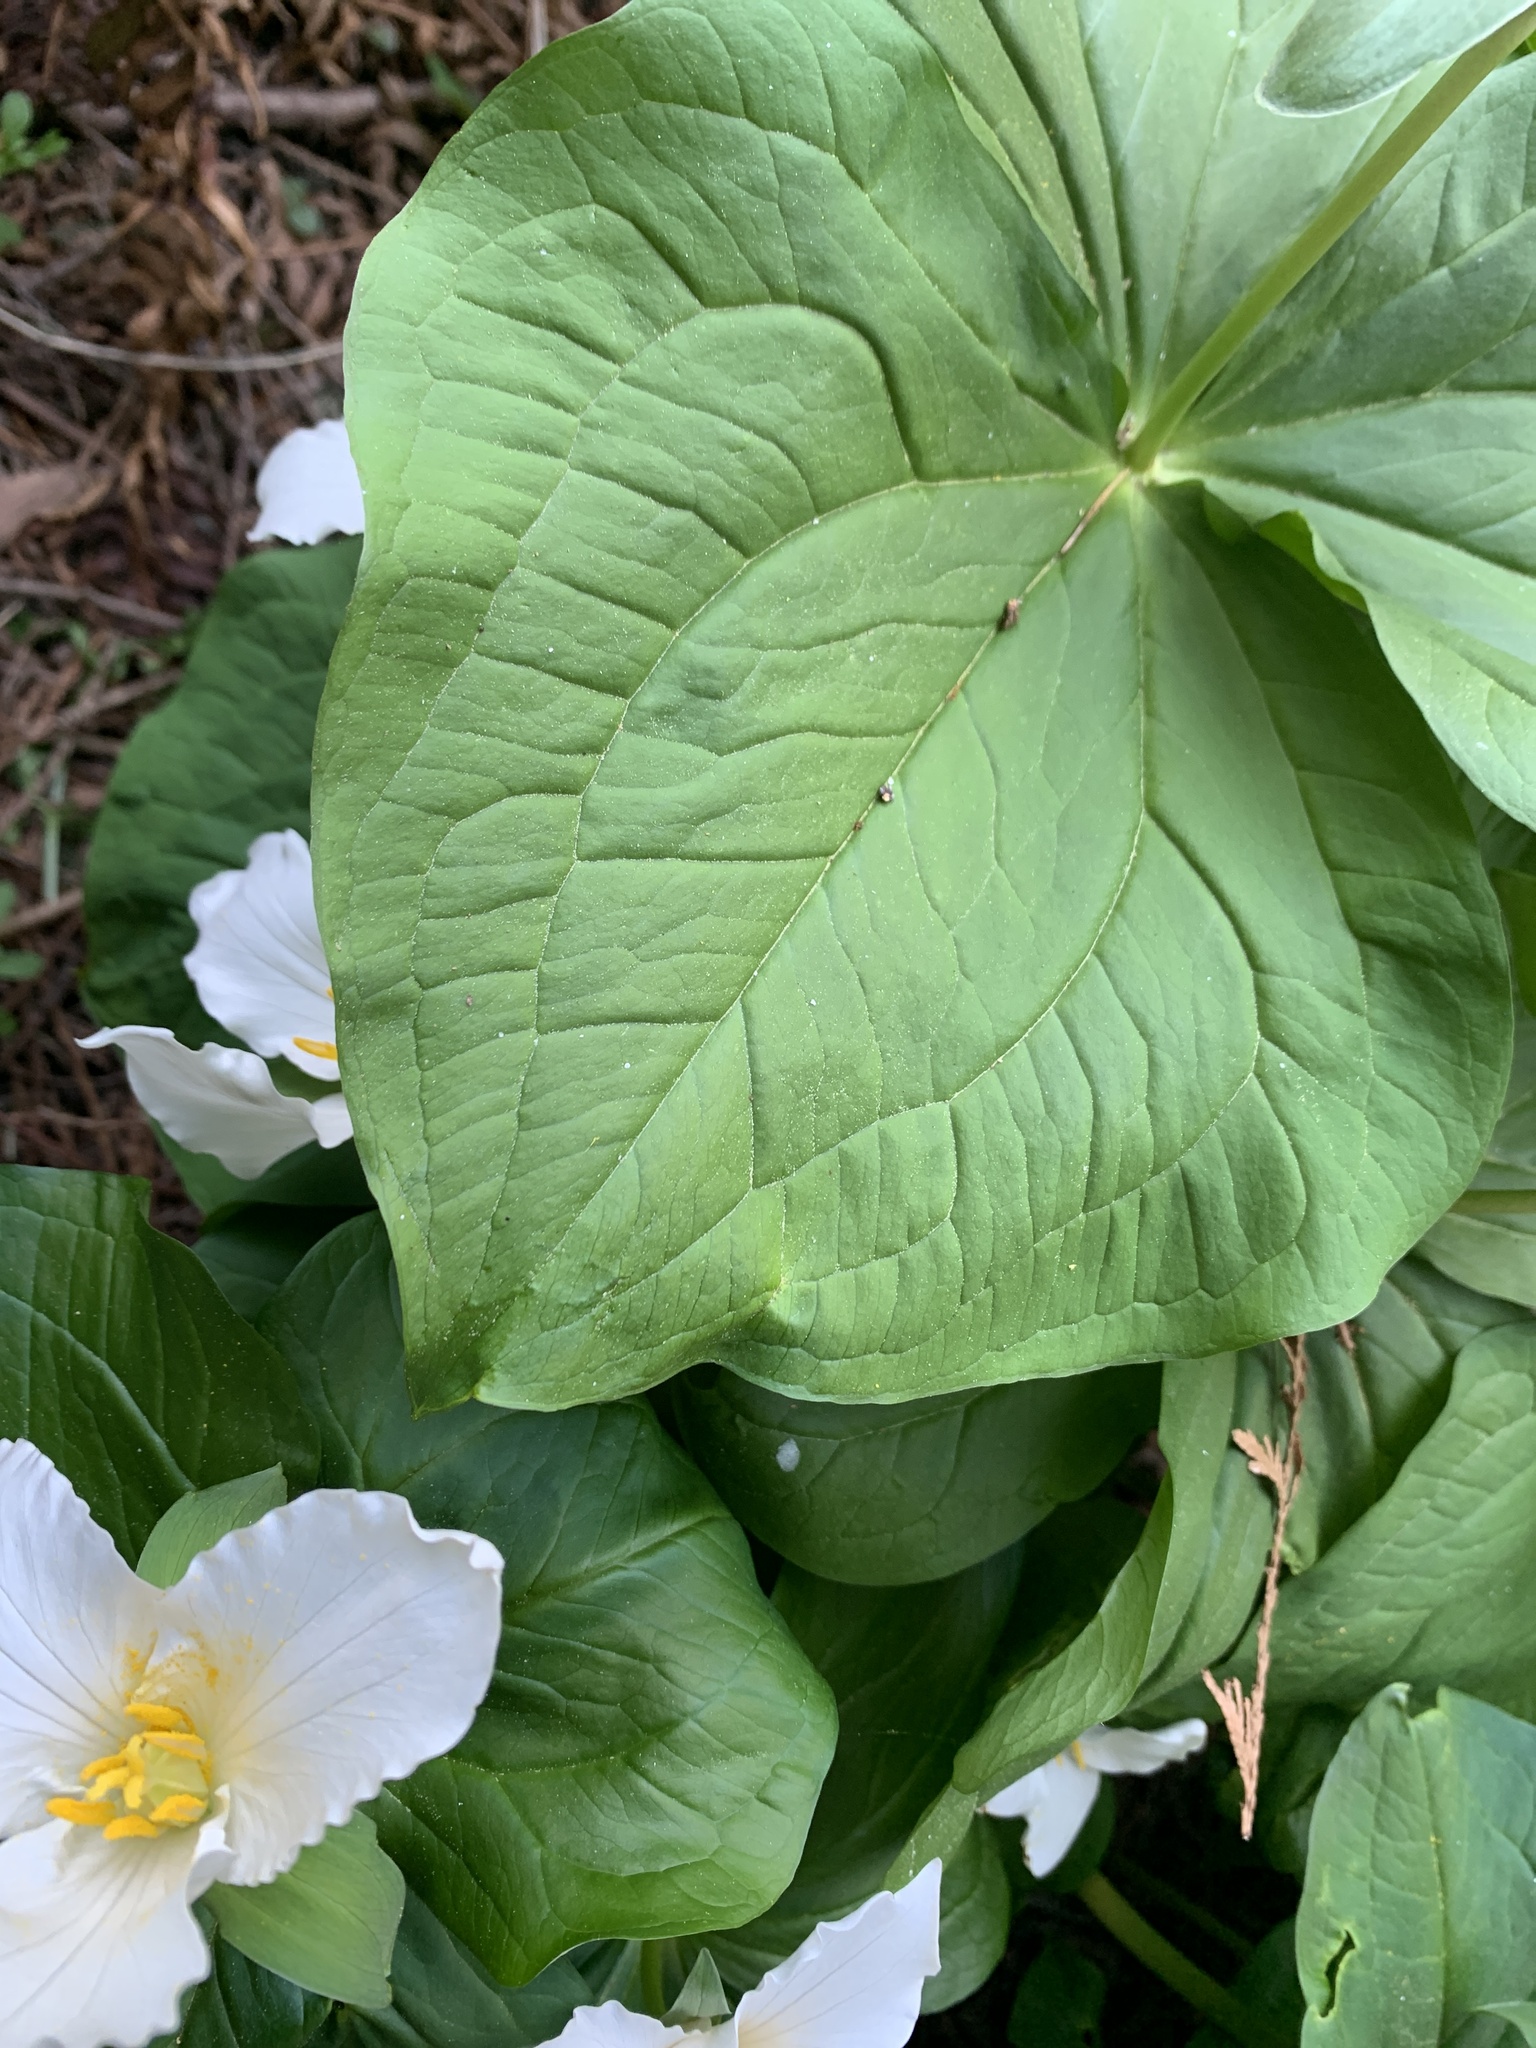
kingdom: Plantae
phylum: Tracheophyta
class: Liliopsida
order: Liliales
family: Melanthiaceae
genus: Trillium
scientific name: Trillium ovatum
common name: Pacific trillium
